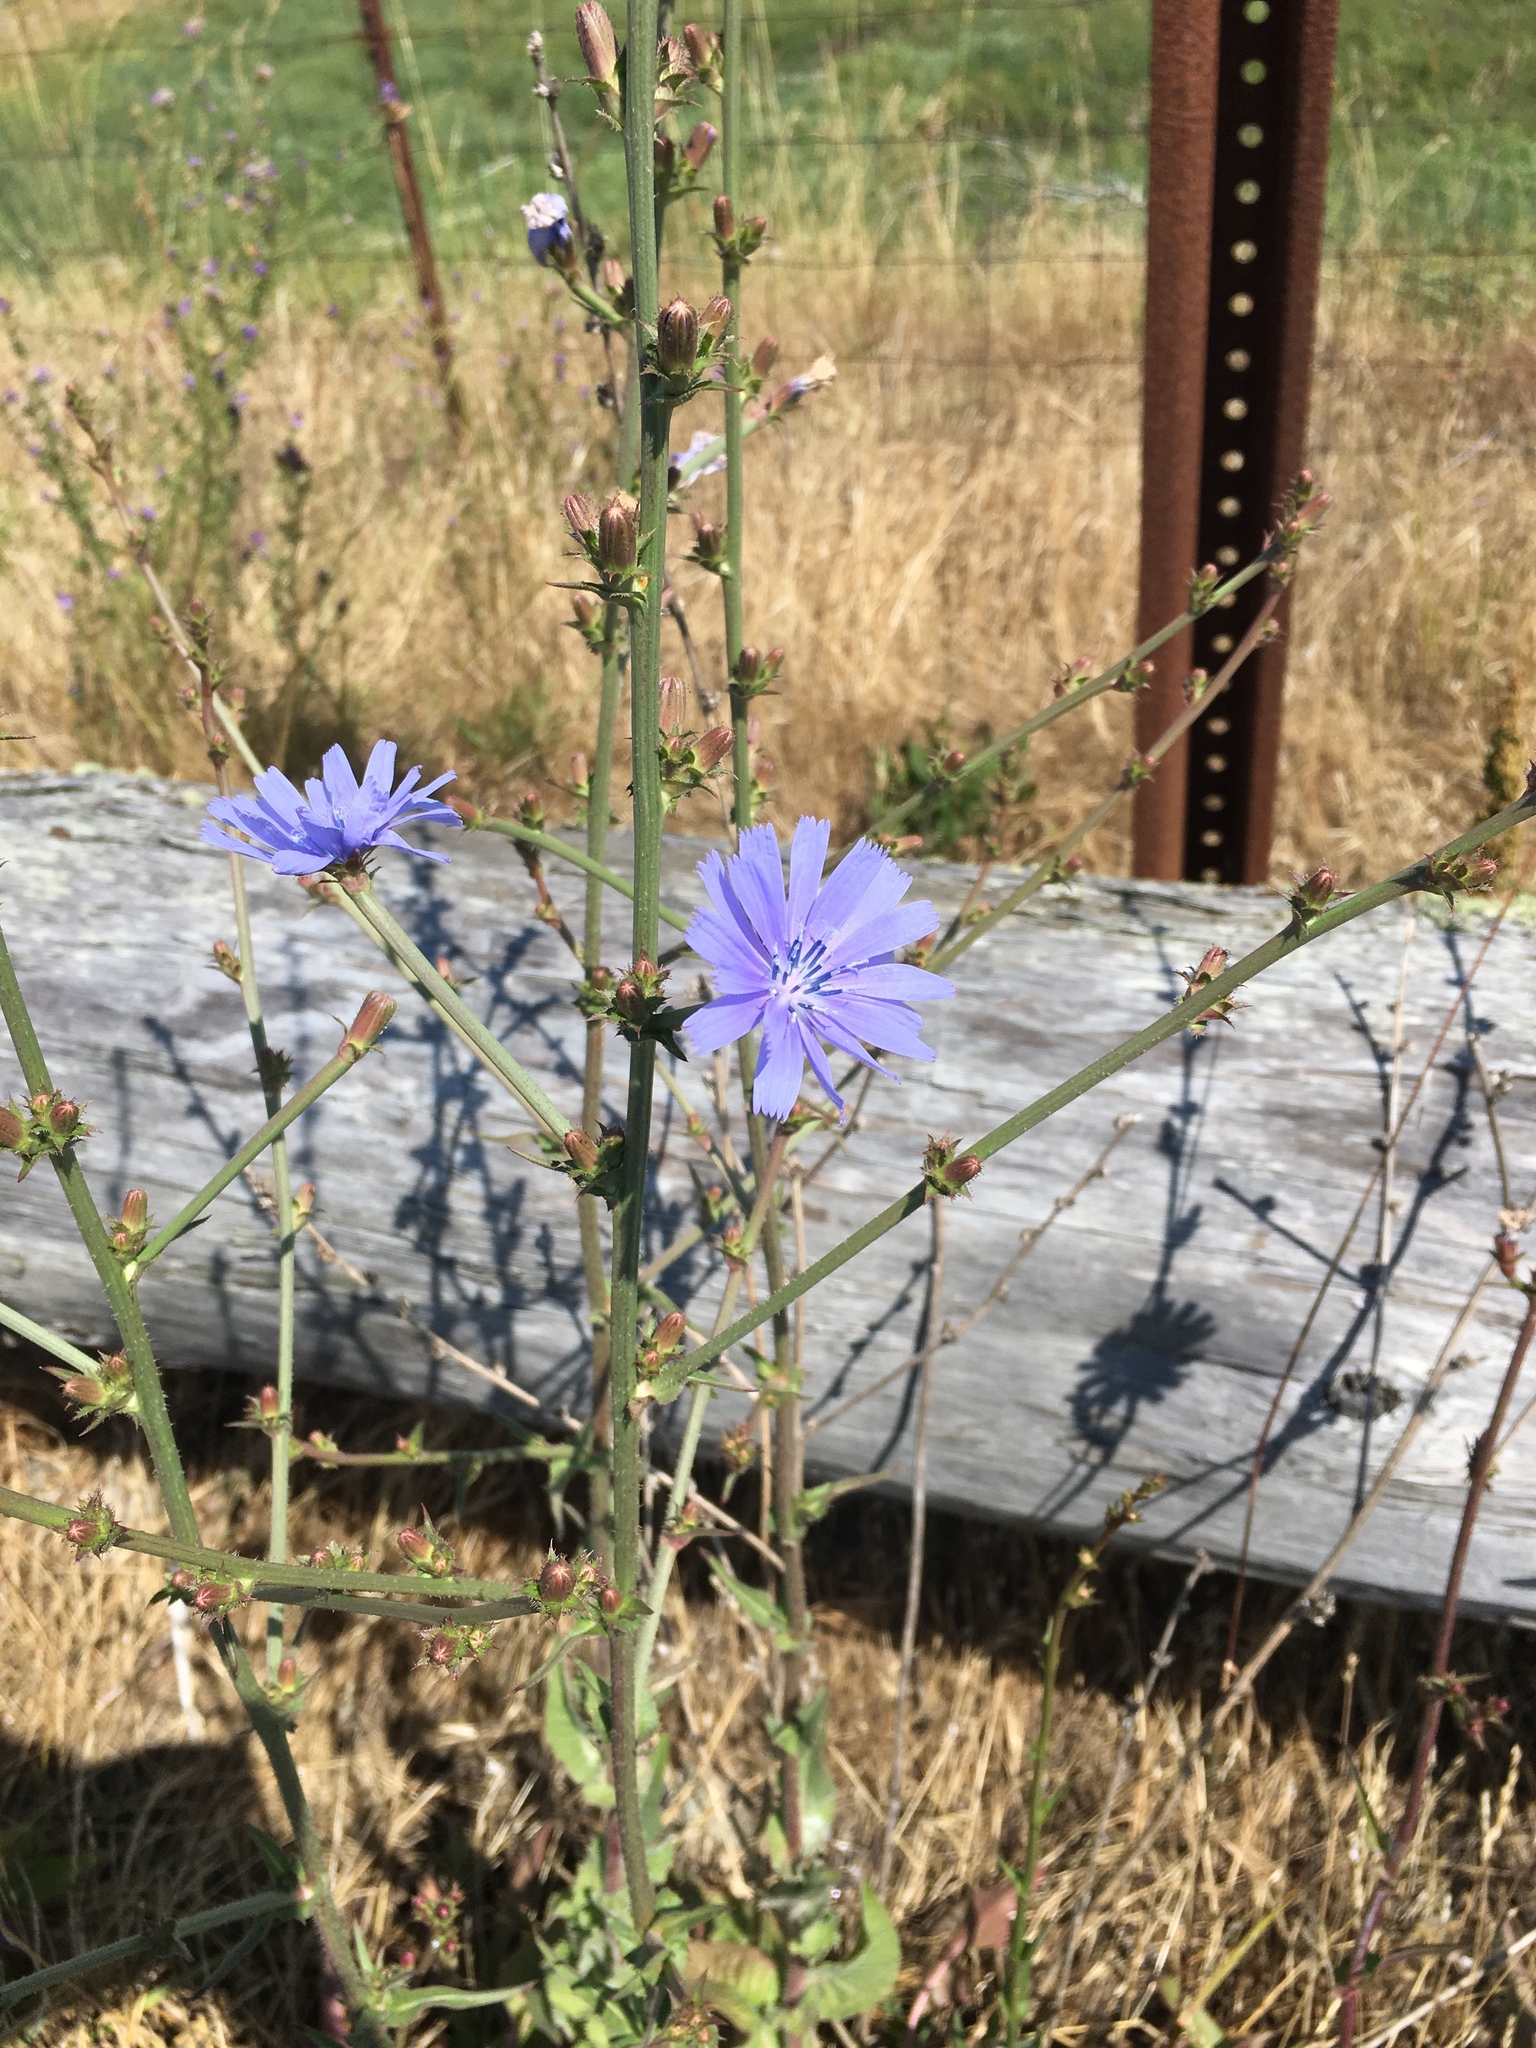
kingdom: Plantae
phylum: Tracheophyta
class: Magnoliopsida
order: Asterales
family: Asteraceae
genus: Cichorium
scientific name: Cichorium intybus
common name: Chicory
